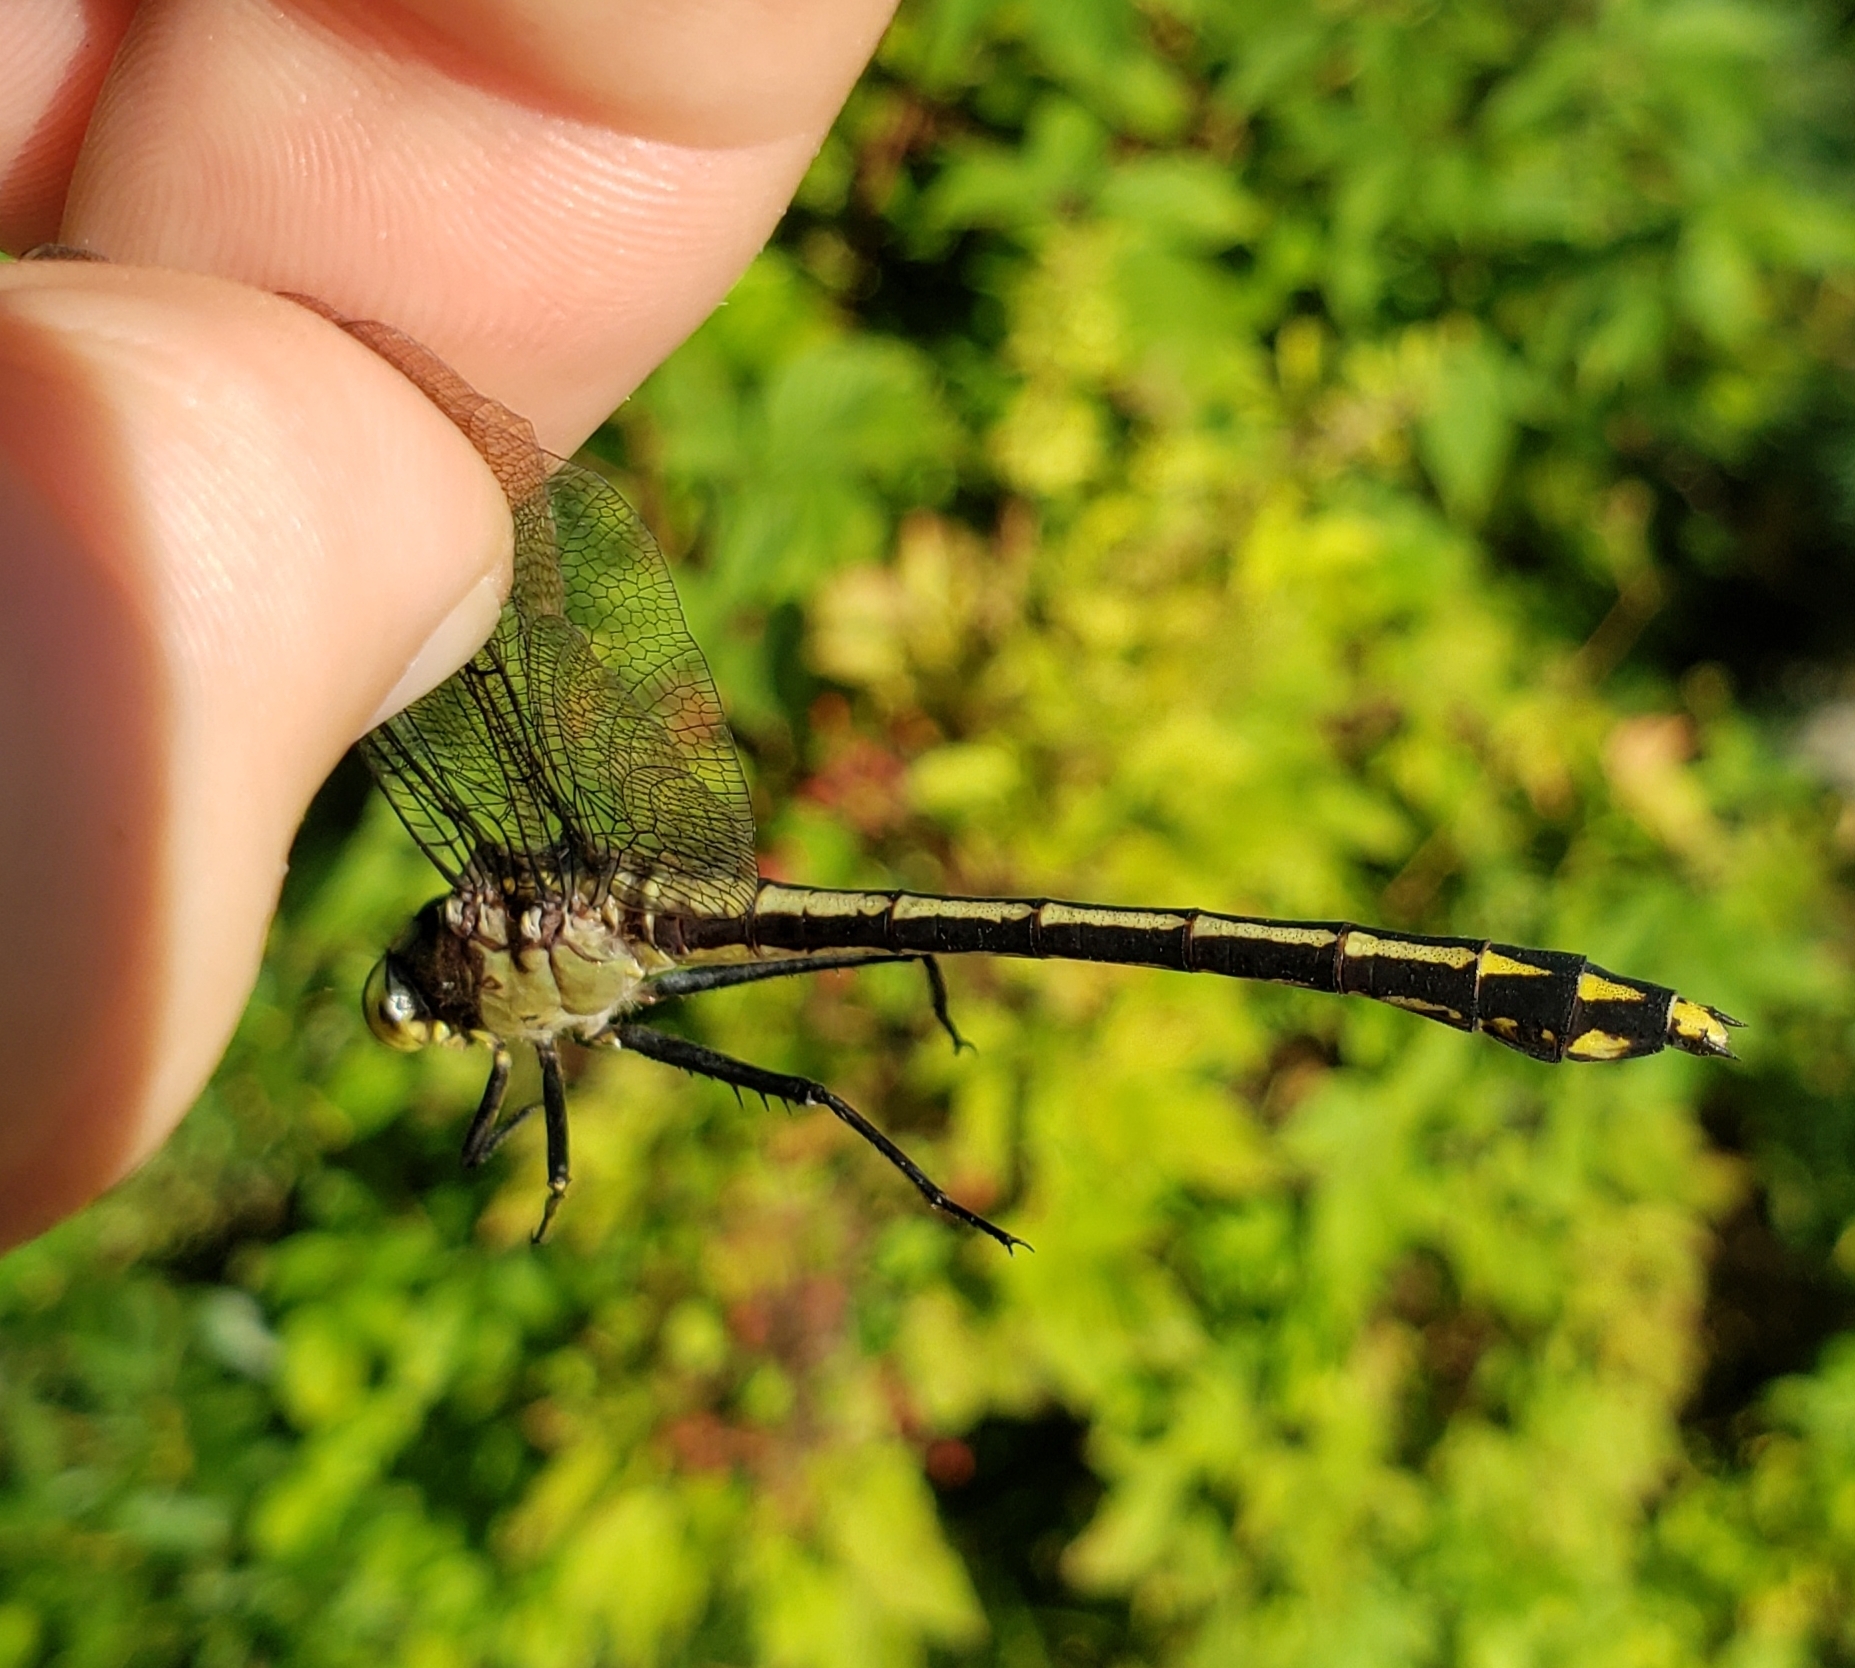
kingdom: Animalia
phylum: Arthropoda
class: Insecta
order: Odonata
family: Gomphidae
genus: Dromogomphus
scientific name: Dromogomphus spinosus
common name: Black-shouldered spinyleg
